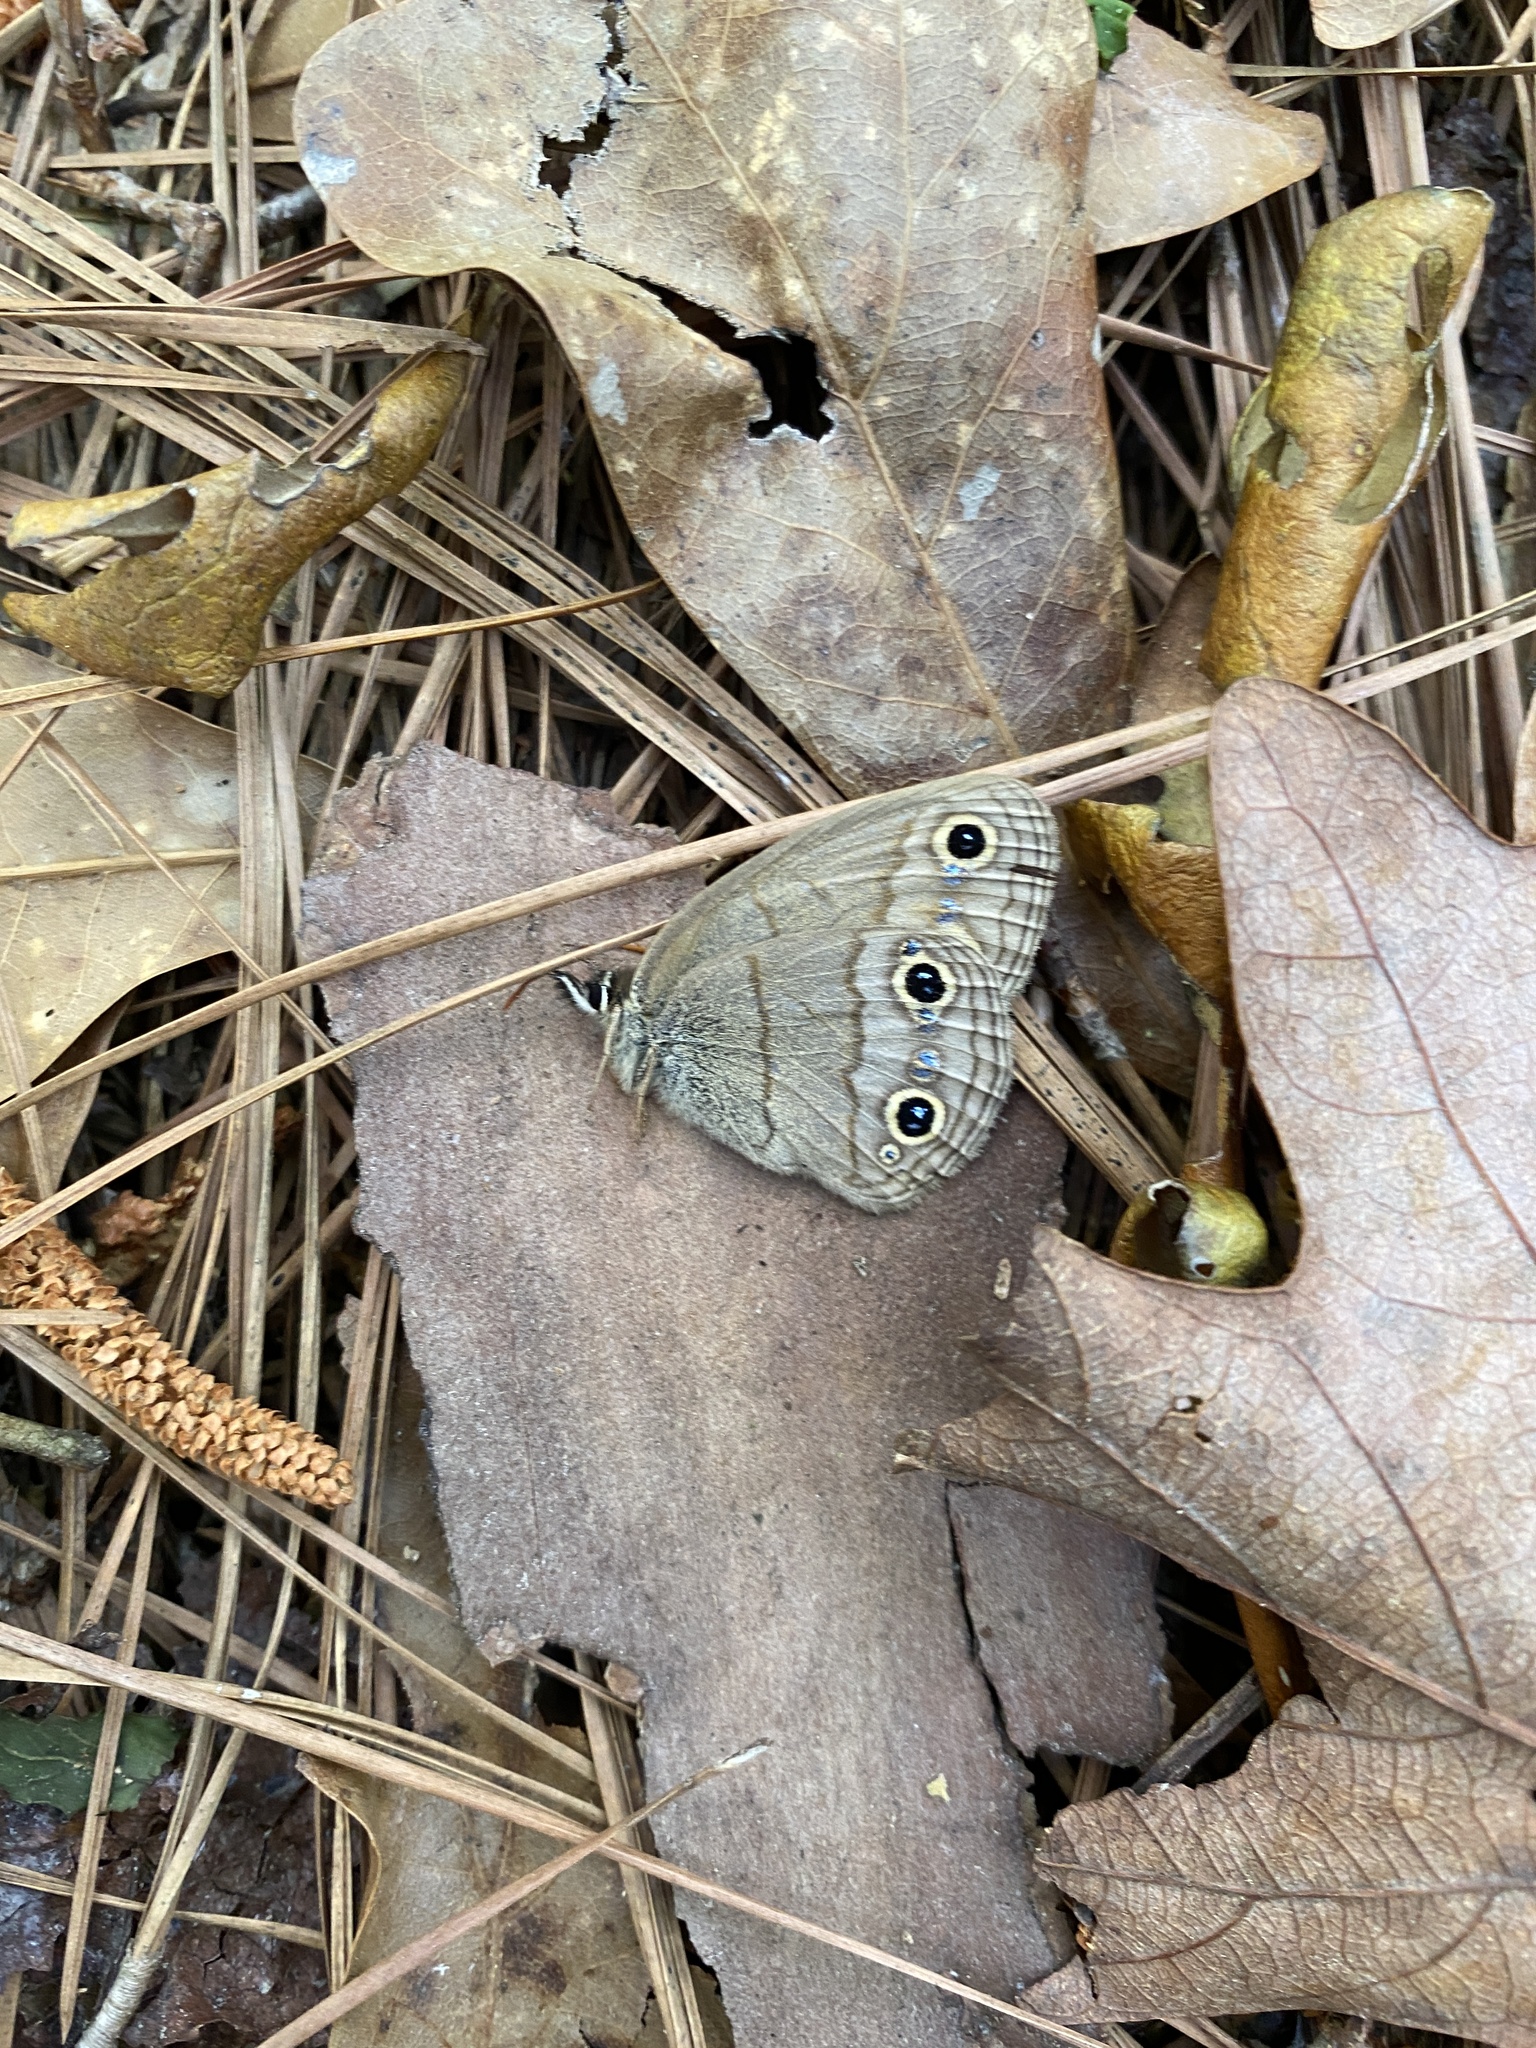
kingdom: Animalia
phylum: Arthropoda
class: Insecta
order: Lepidoptera
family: Nymphalidae
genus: Euptychia
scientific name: Euptychia cymela
